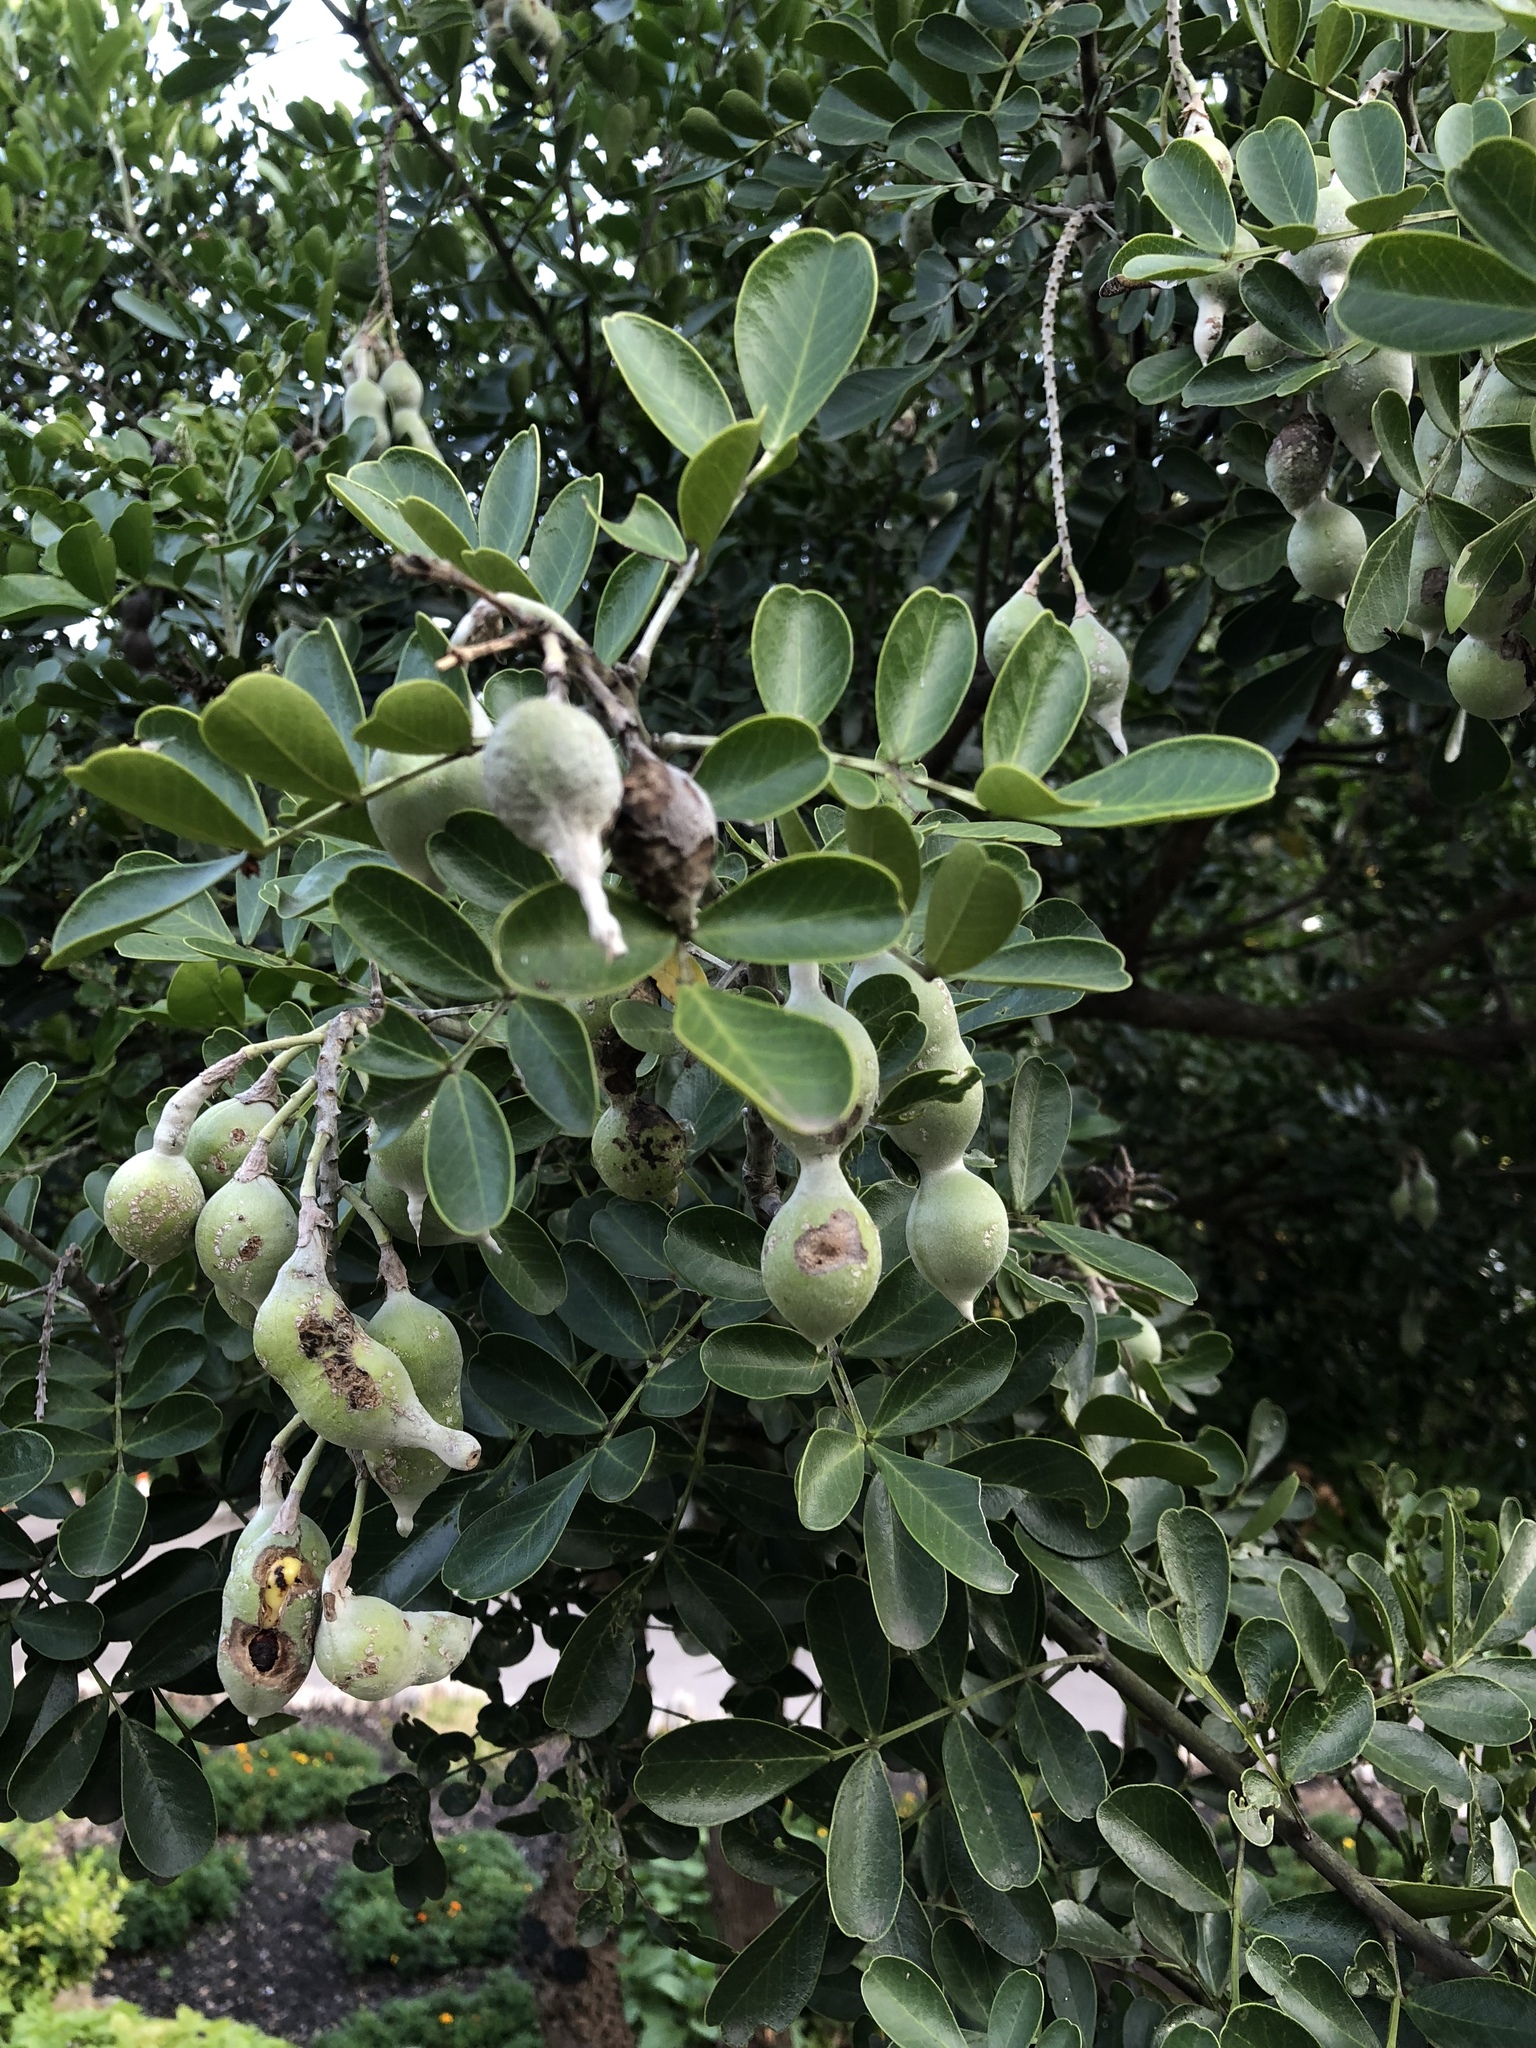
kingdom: Plantae
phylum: Tracheophyta
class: Magnoliopsida
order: Fabales
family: Fabaceae
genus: Dermatophyllum
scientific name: Dermatophyllum secundiflorum
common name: Texas-mountain-laurel
